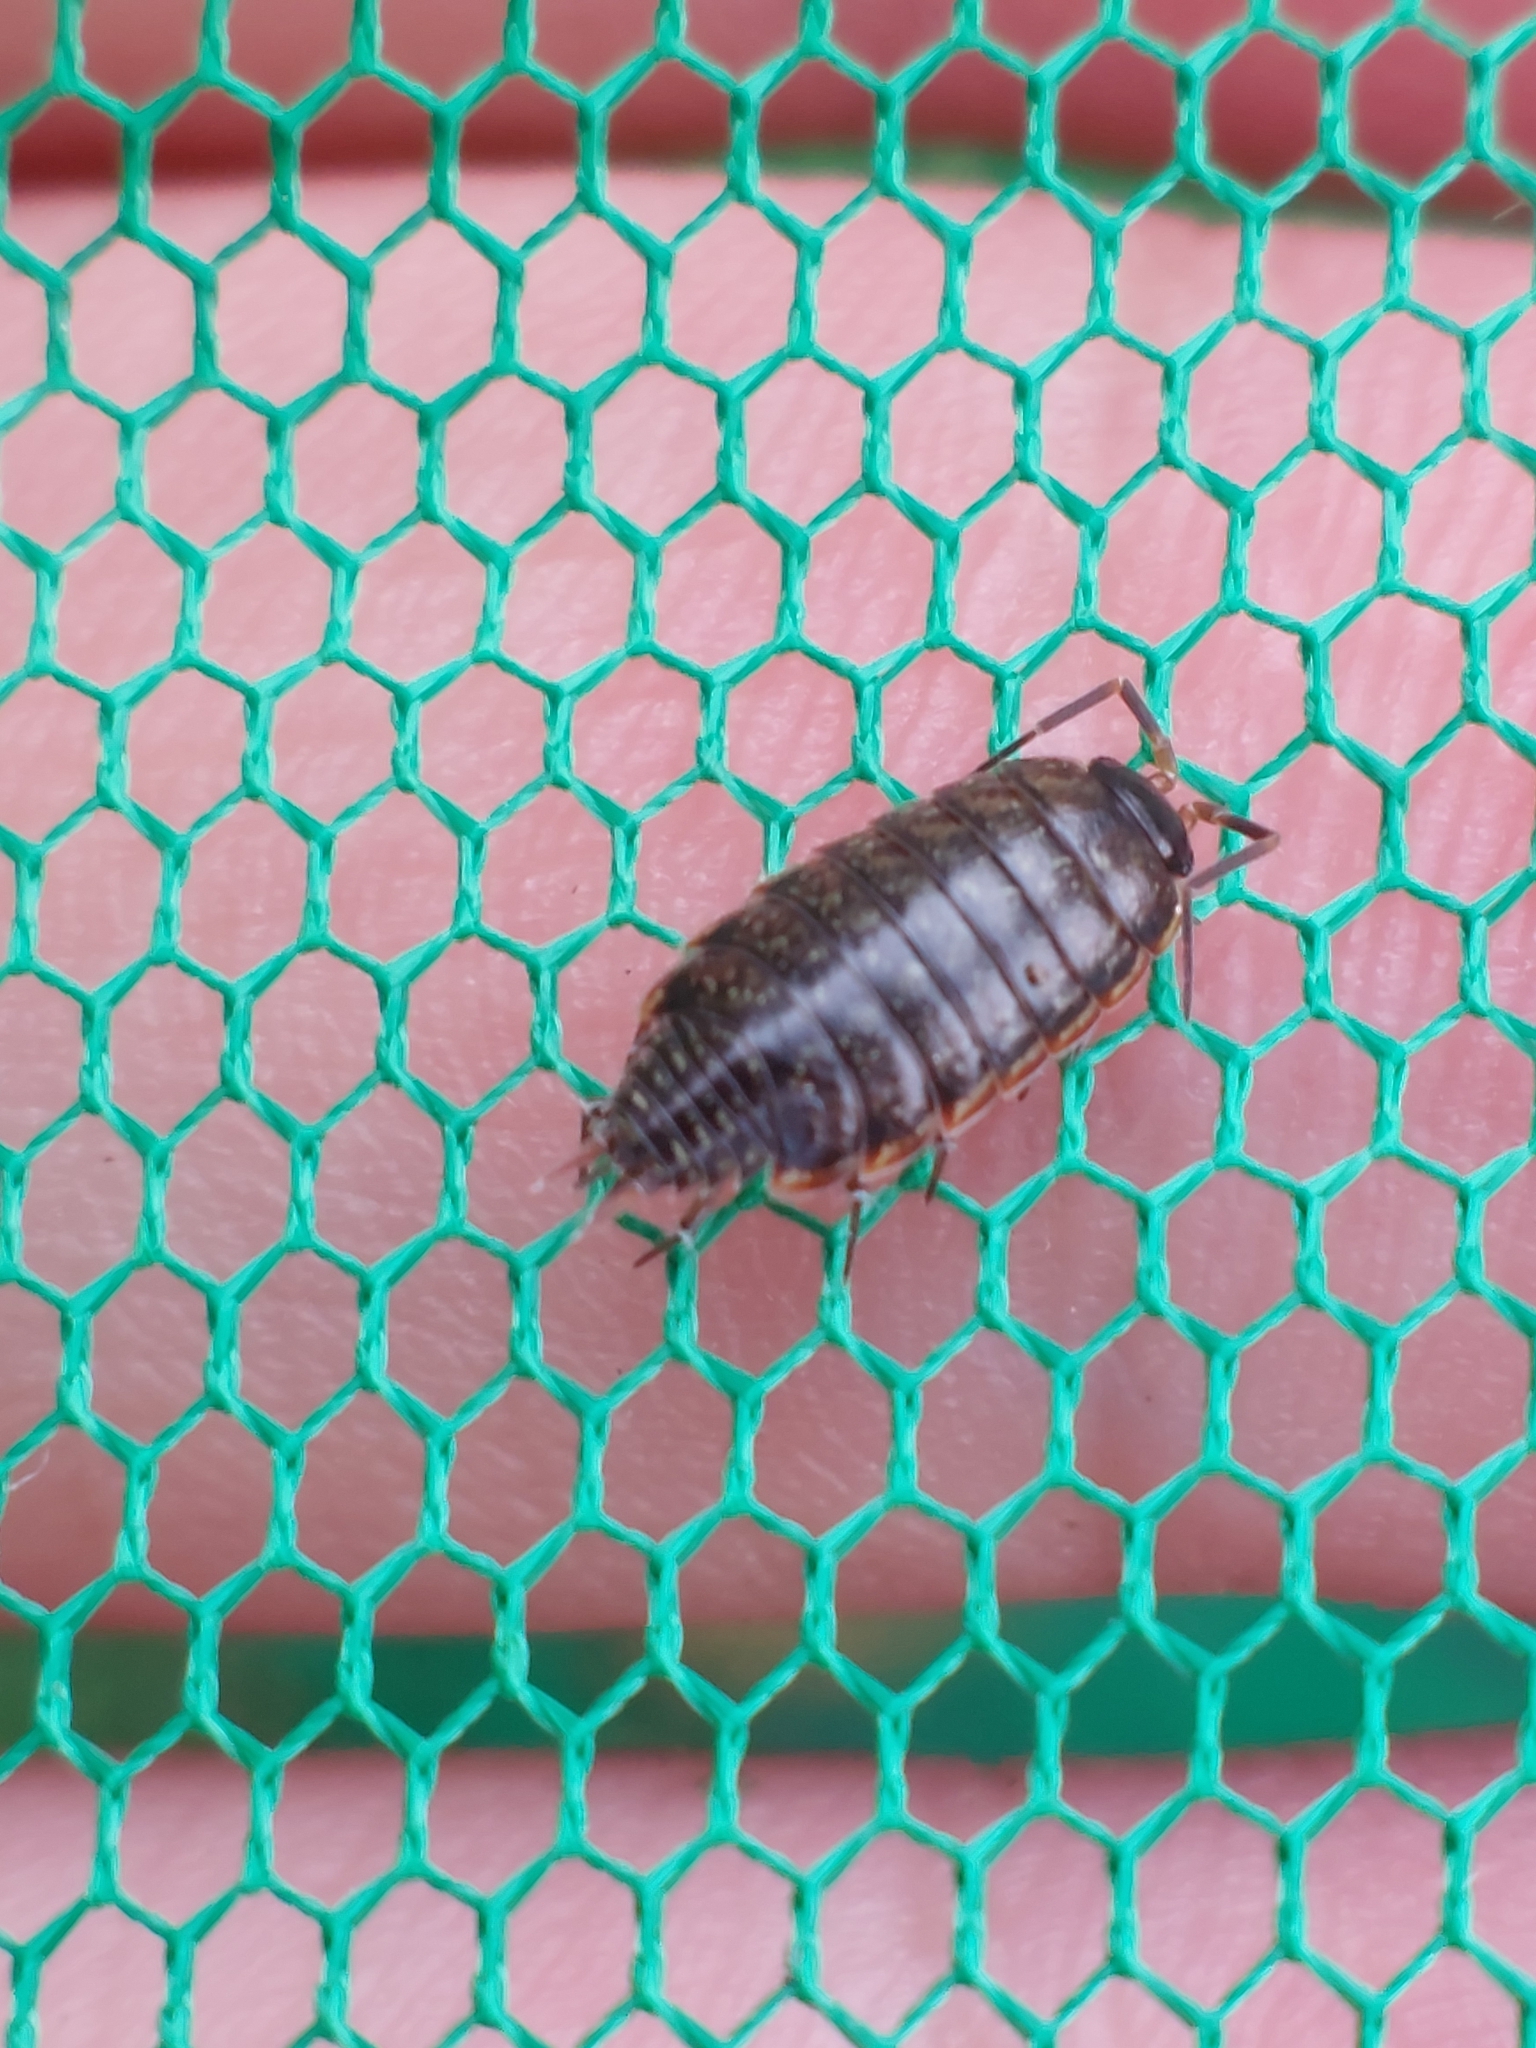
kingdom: Animalia
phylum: Arthropoda
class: Malacostraca
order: Isopoda
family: Philosciidae
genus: Philoscia
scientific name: Philoscia muscorum
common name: Common striped woodlouse
